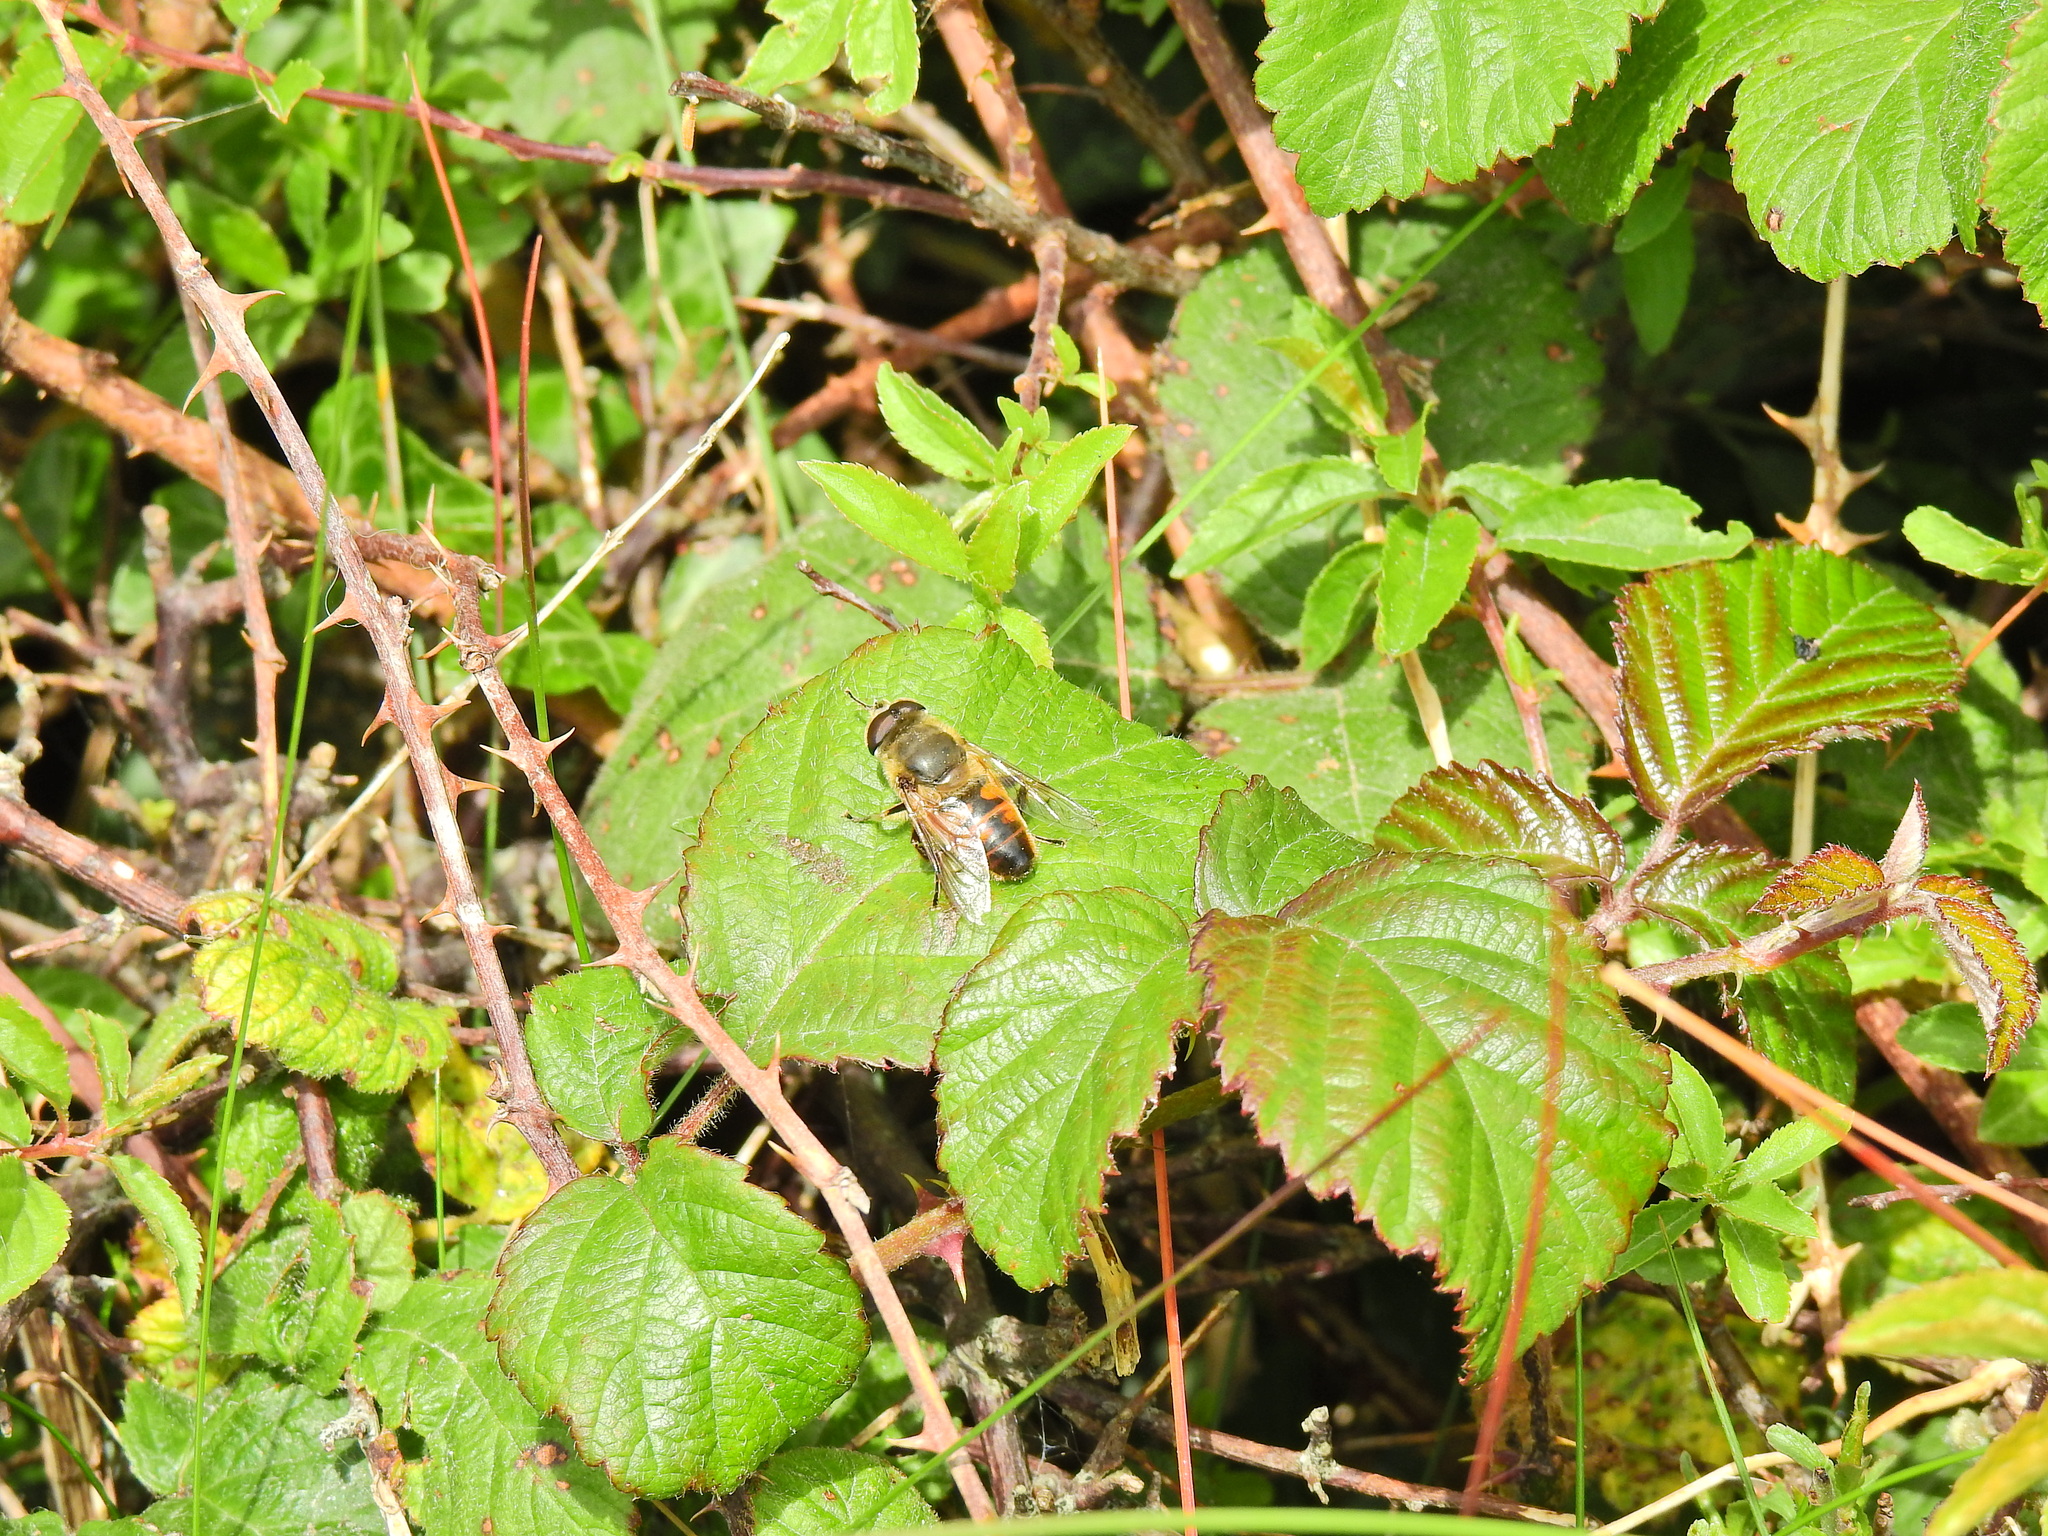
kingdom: Animalia
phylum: Arthropoda
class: Insecta
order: Diptera
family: Syrphidae
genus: Eristalis
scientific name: Eristalis tenax
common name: Drone fly
